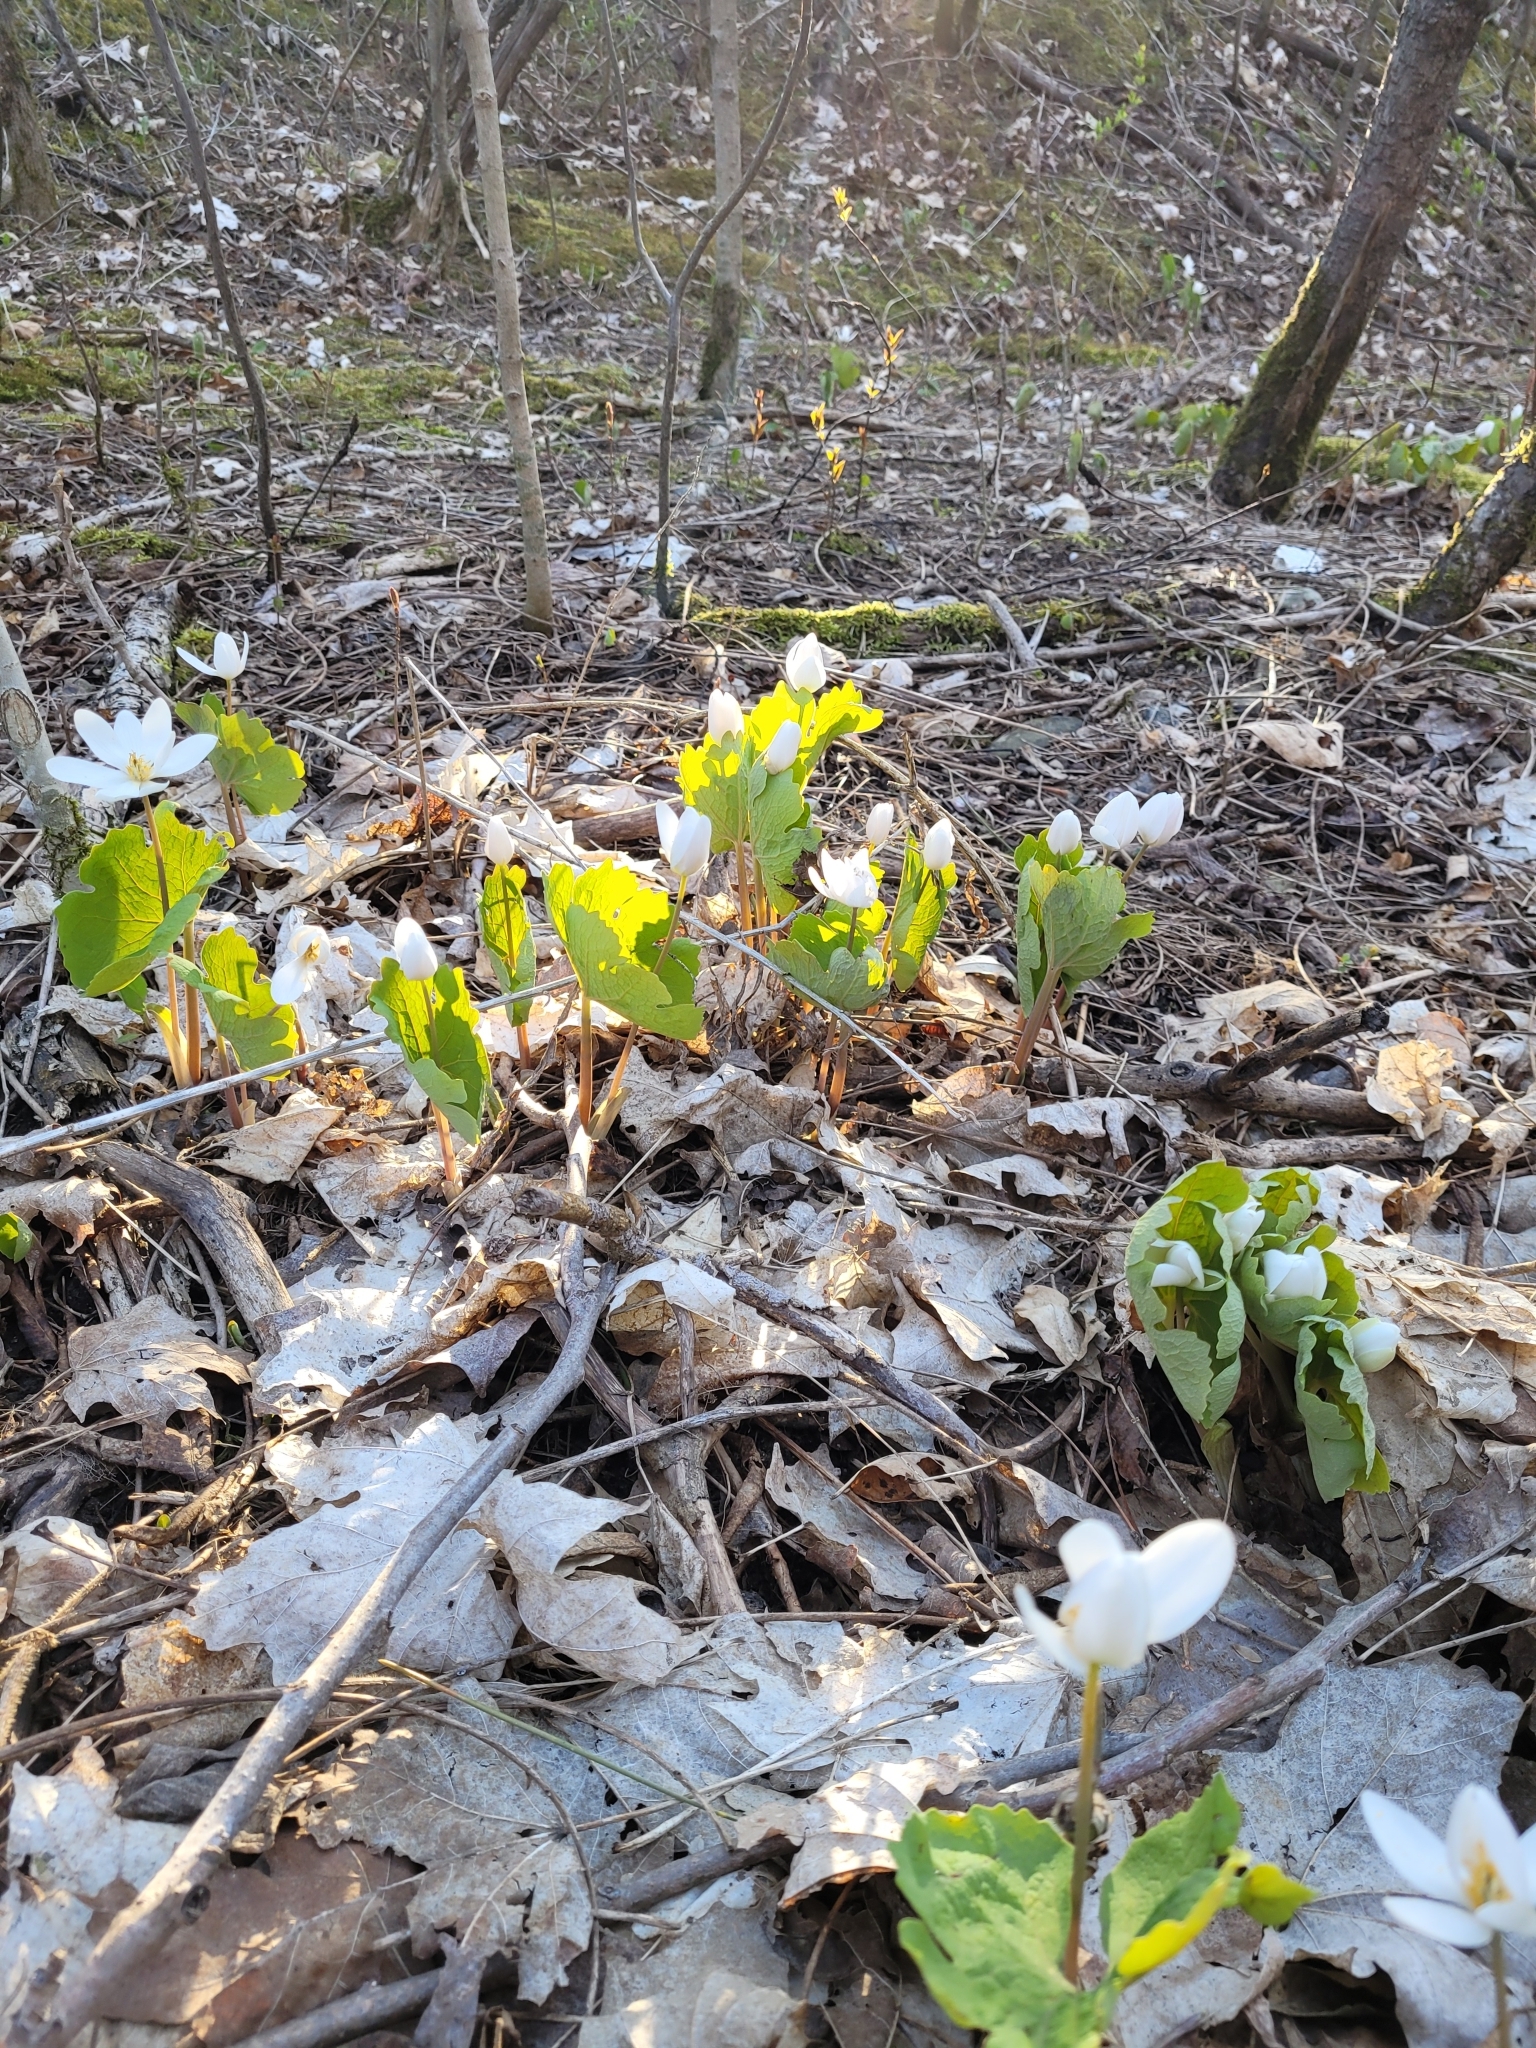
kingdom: Plantae
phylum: Tracheophyta
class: Magnoliopsida
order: Ranunculales
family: Papaveraceae
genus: Sanguinaria
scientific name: Sanguinaria canadensis
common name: Bloodroot
